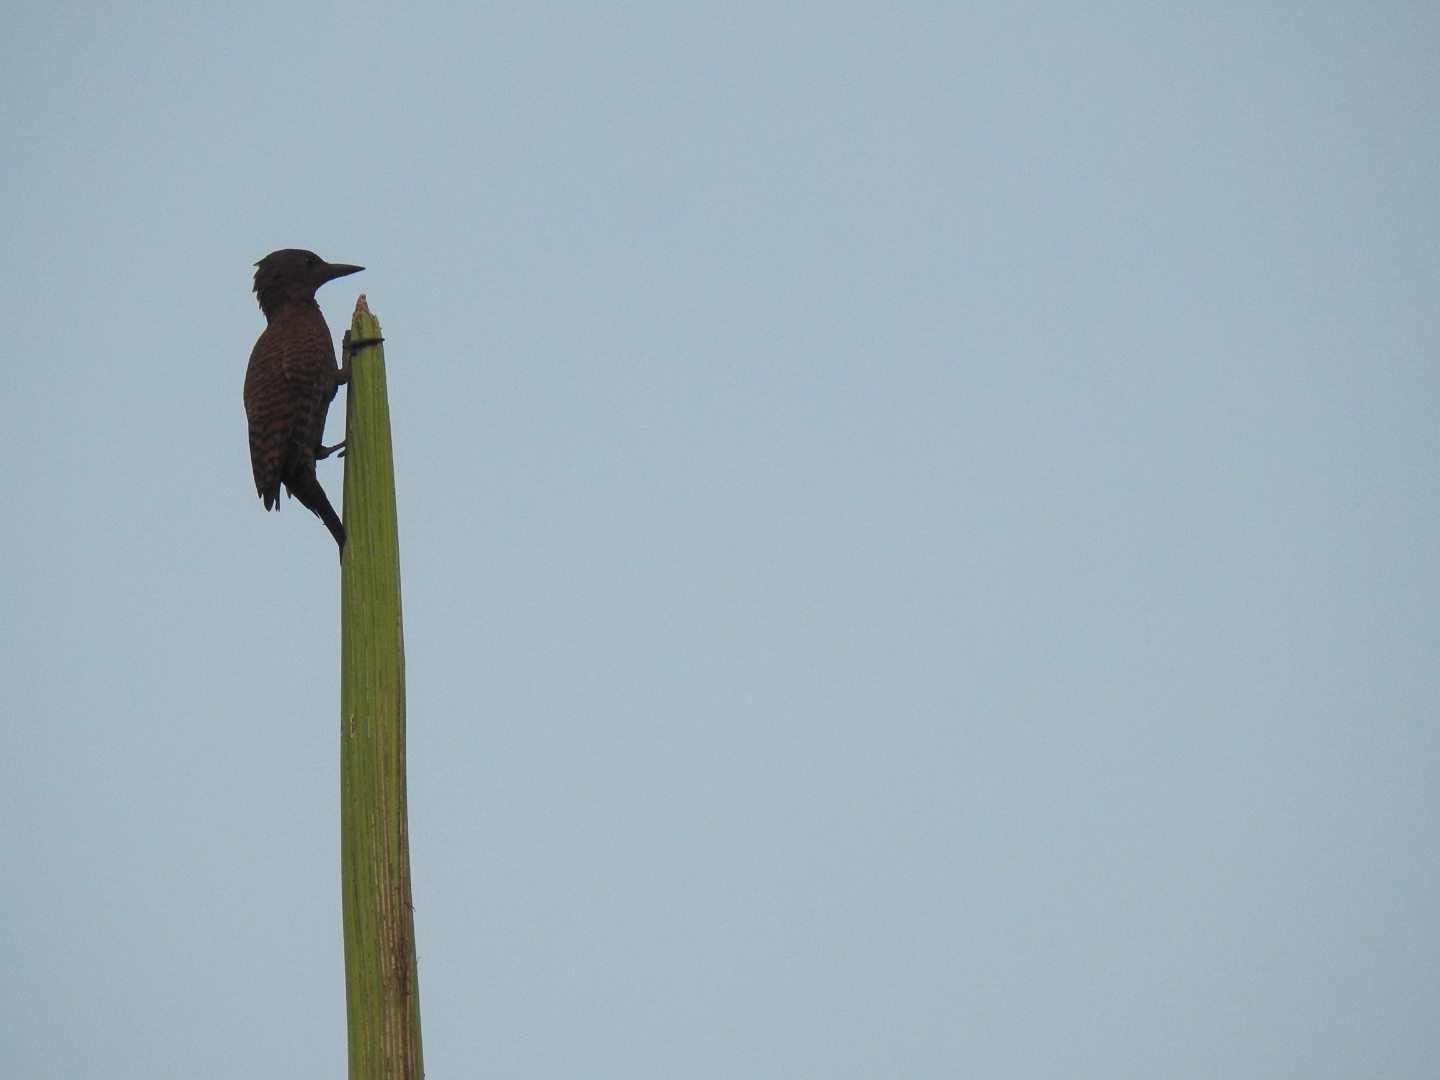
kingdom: Animalia
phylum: Chordata
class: Aves
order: Piciformes
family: Picidae
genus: Micropternus
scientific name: Micropternus brachyurus
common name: Rufous woodpecker
